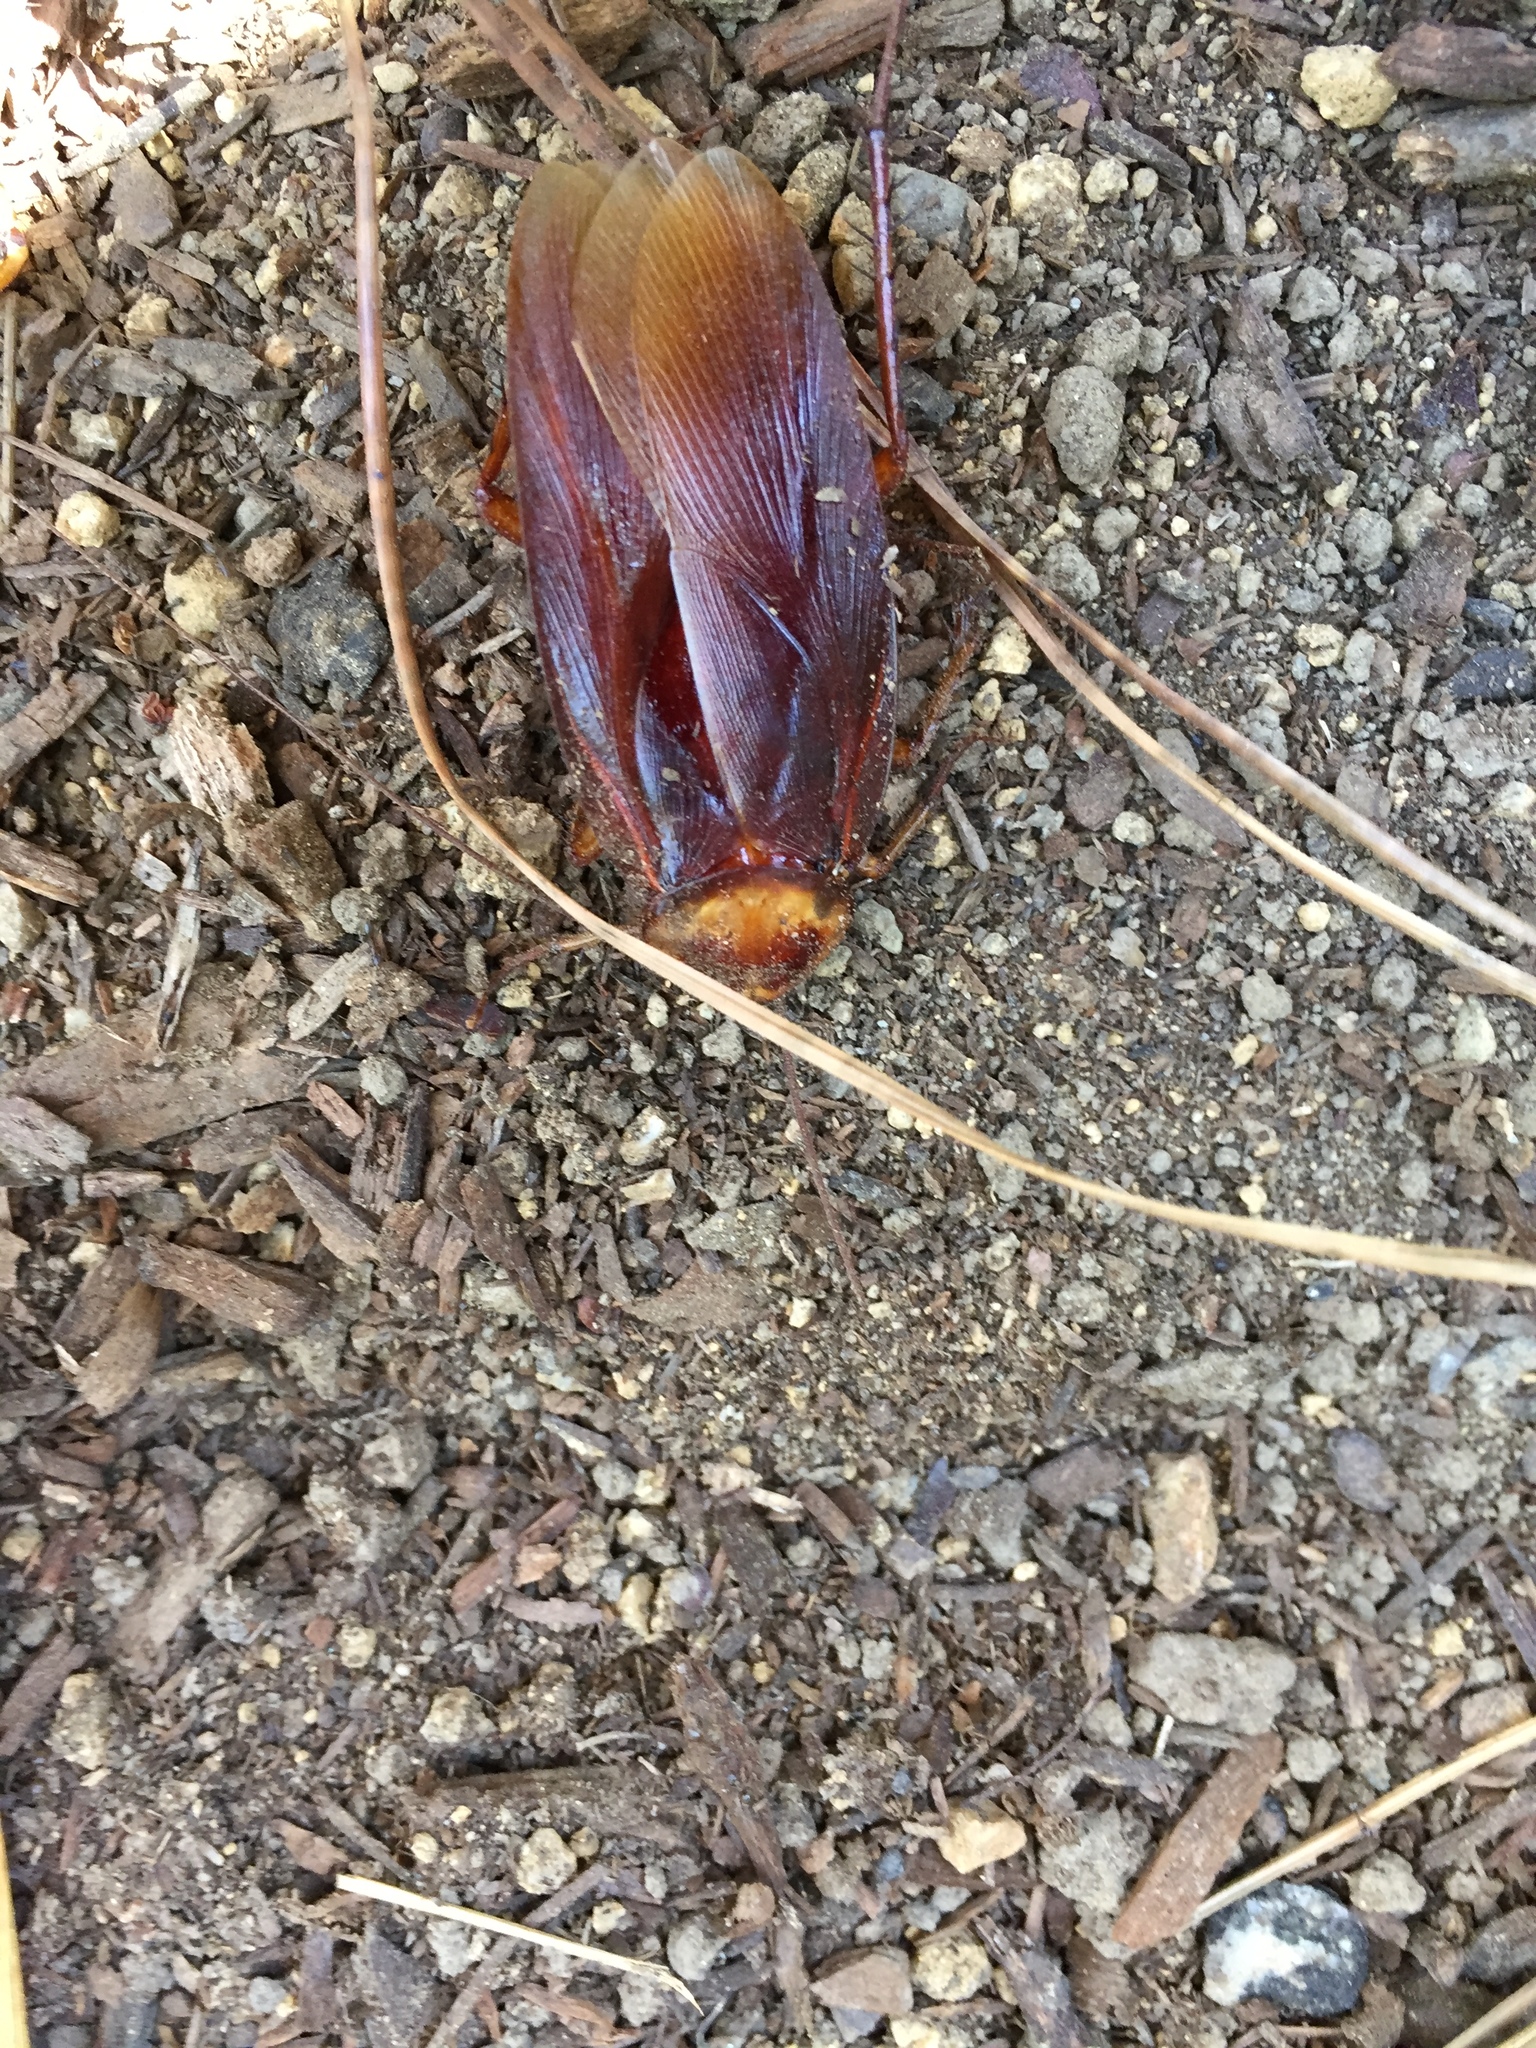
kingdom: Animalia
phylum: Arthropoda
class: Insecta
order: Blattodea
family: Blattidae
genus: Periplaneta
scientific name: Periplaneta americana
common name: American cockroach
